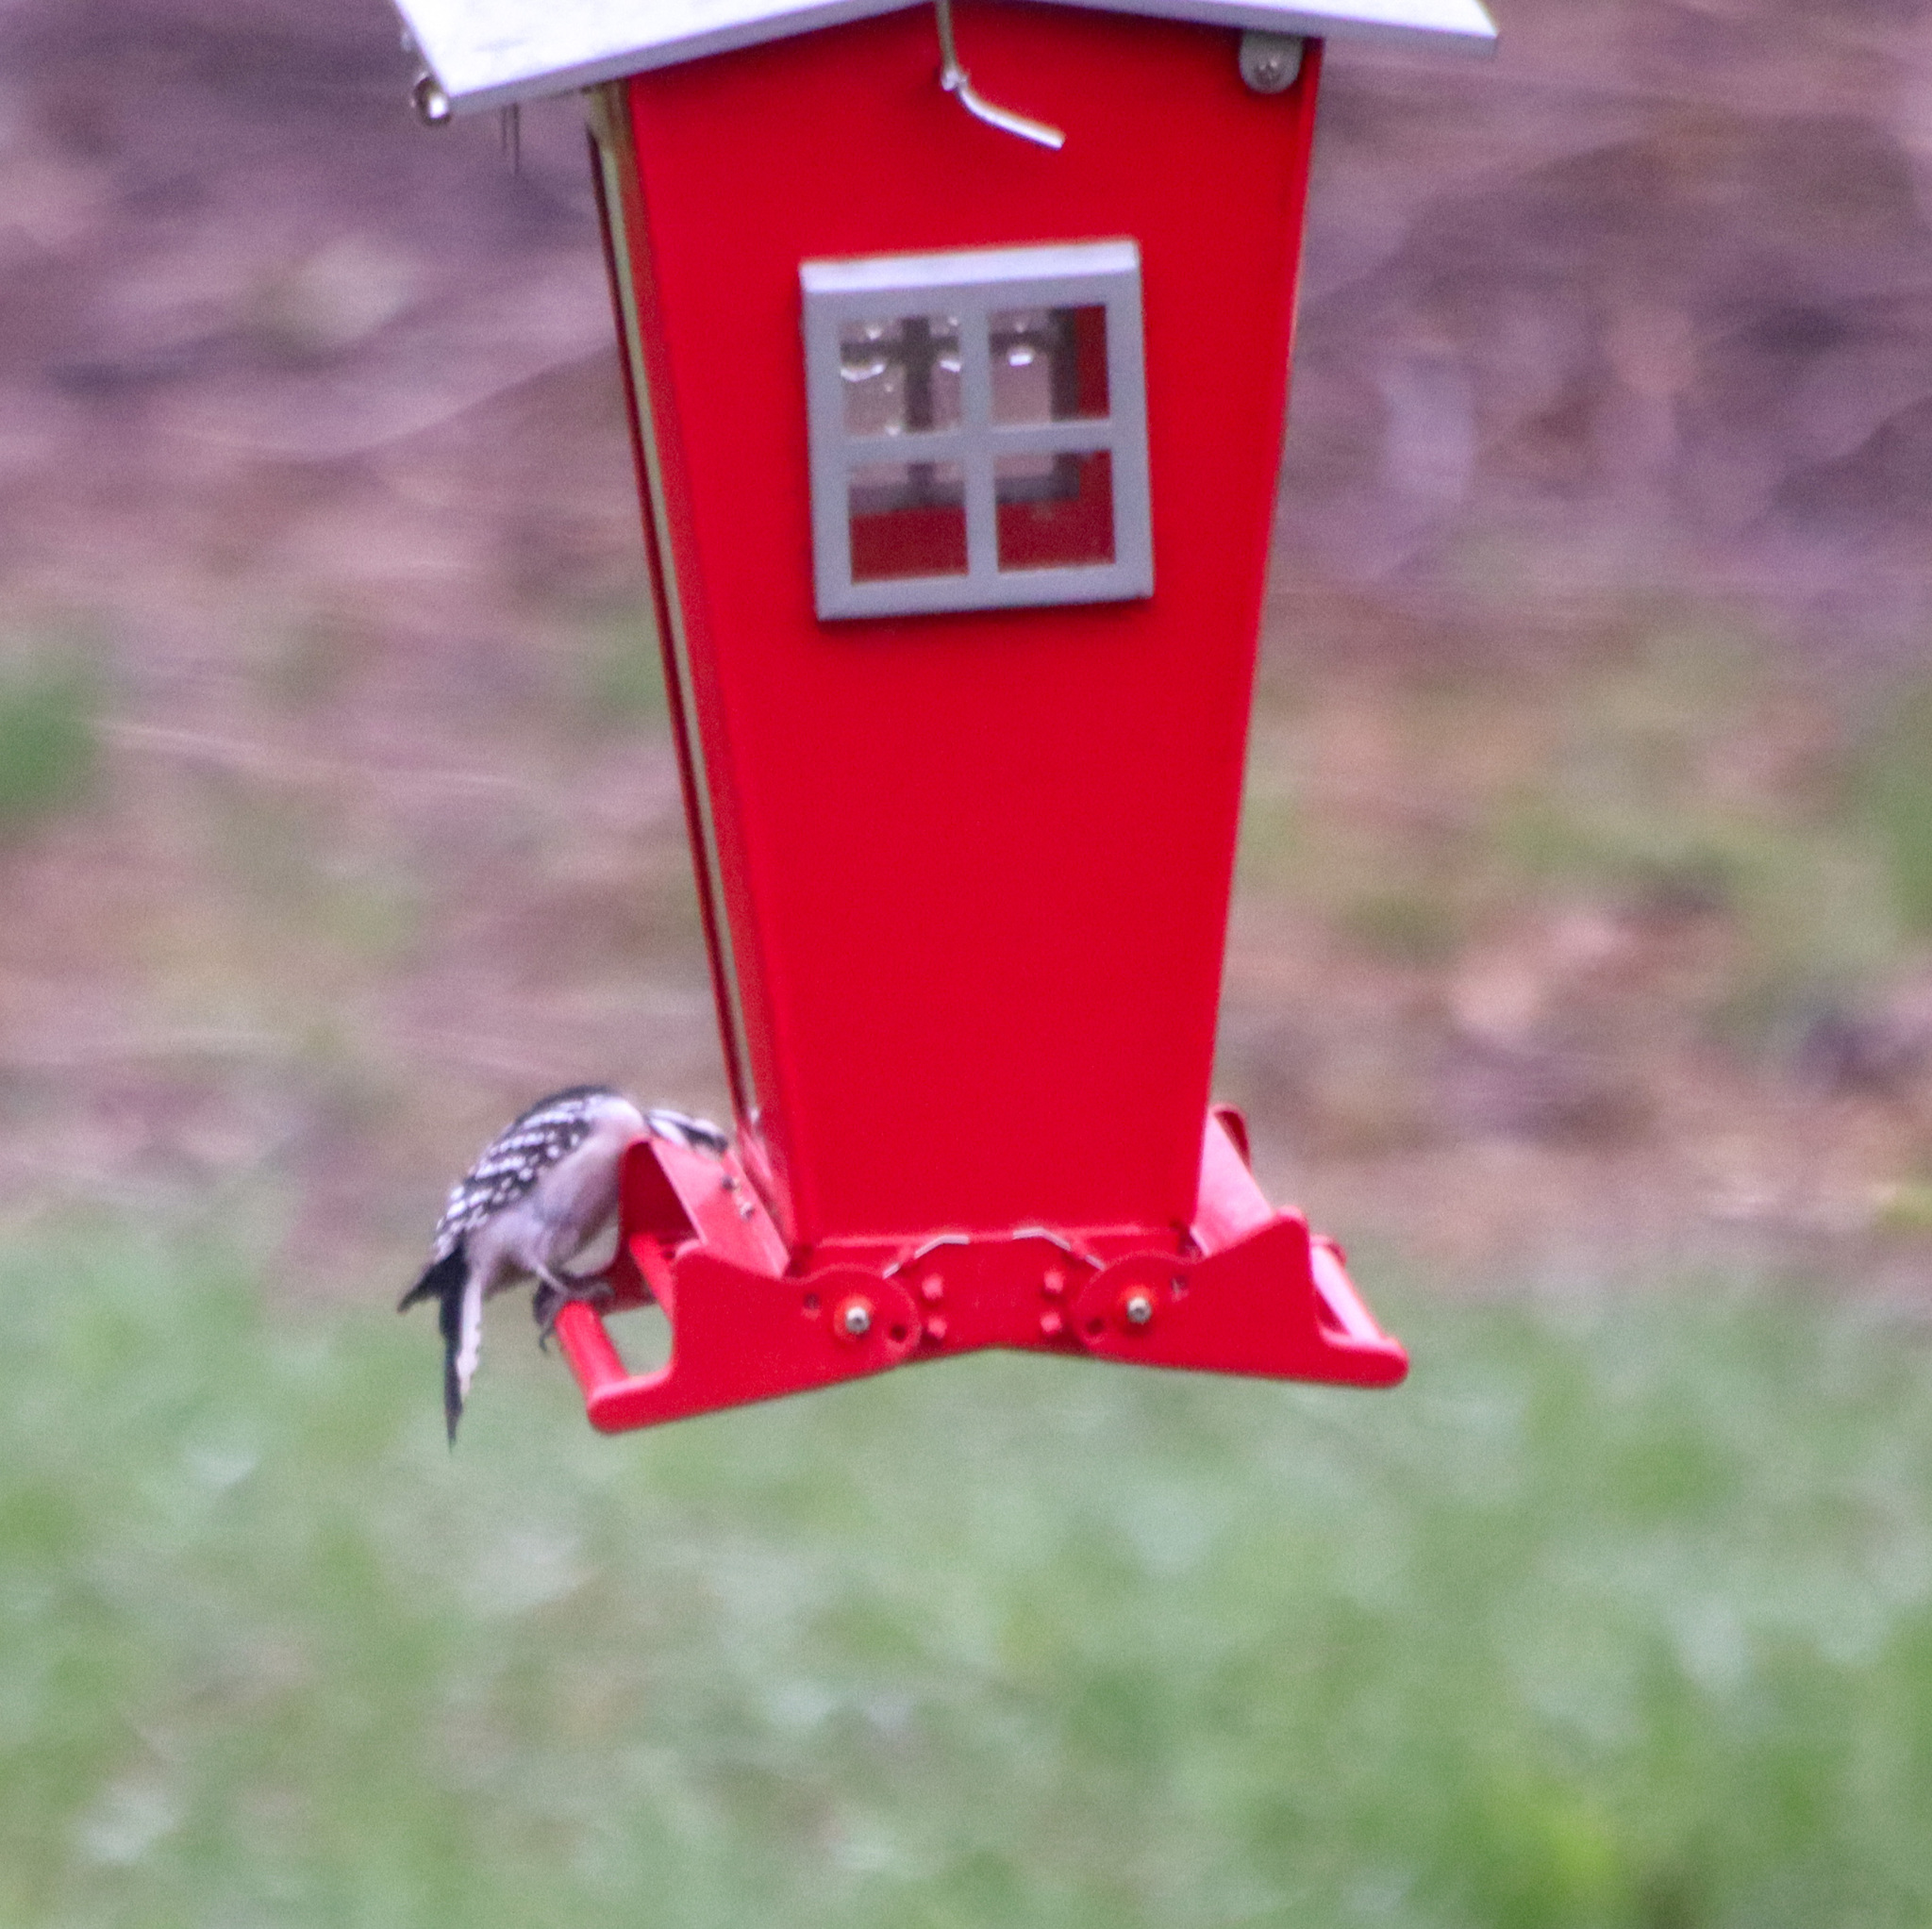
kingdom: Animalia
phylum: Chordata
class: Aves
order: Piciformes
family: Picidae
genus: Dryobates
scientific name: Dryobates pubescens
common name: Downy woodpecker
